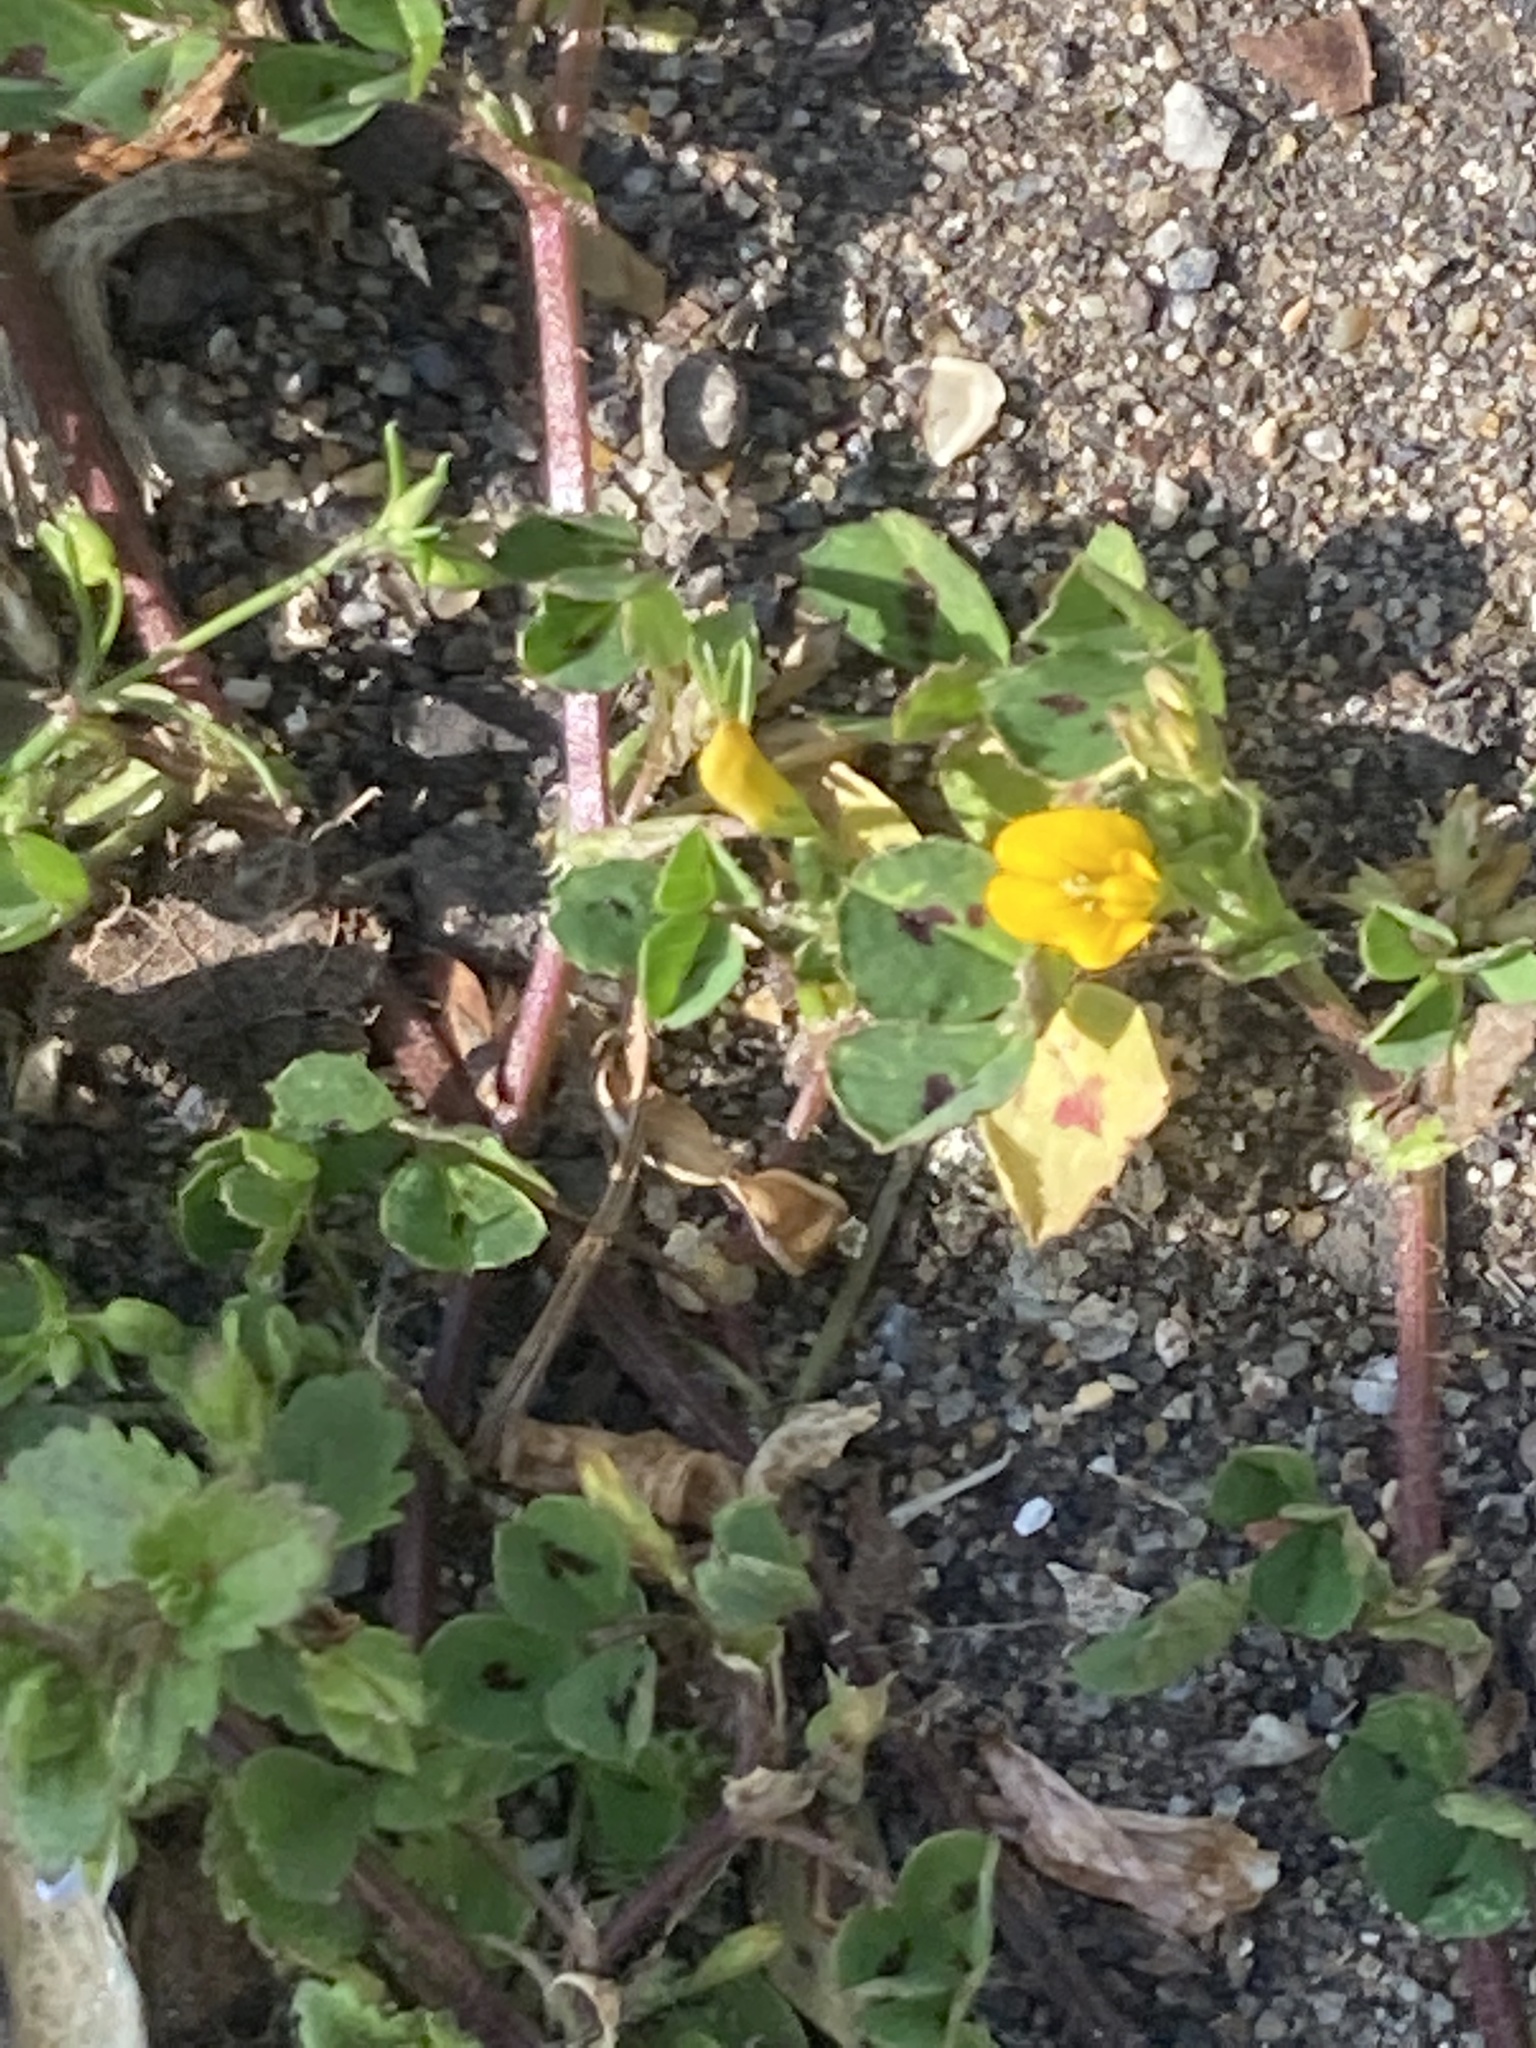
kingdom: Plantae
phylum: Tracheophyta
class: Magnoliopsida
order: Fabales
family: Fabaceae
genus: Medicago
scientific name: Medicago arabica
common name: Spotted medick
